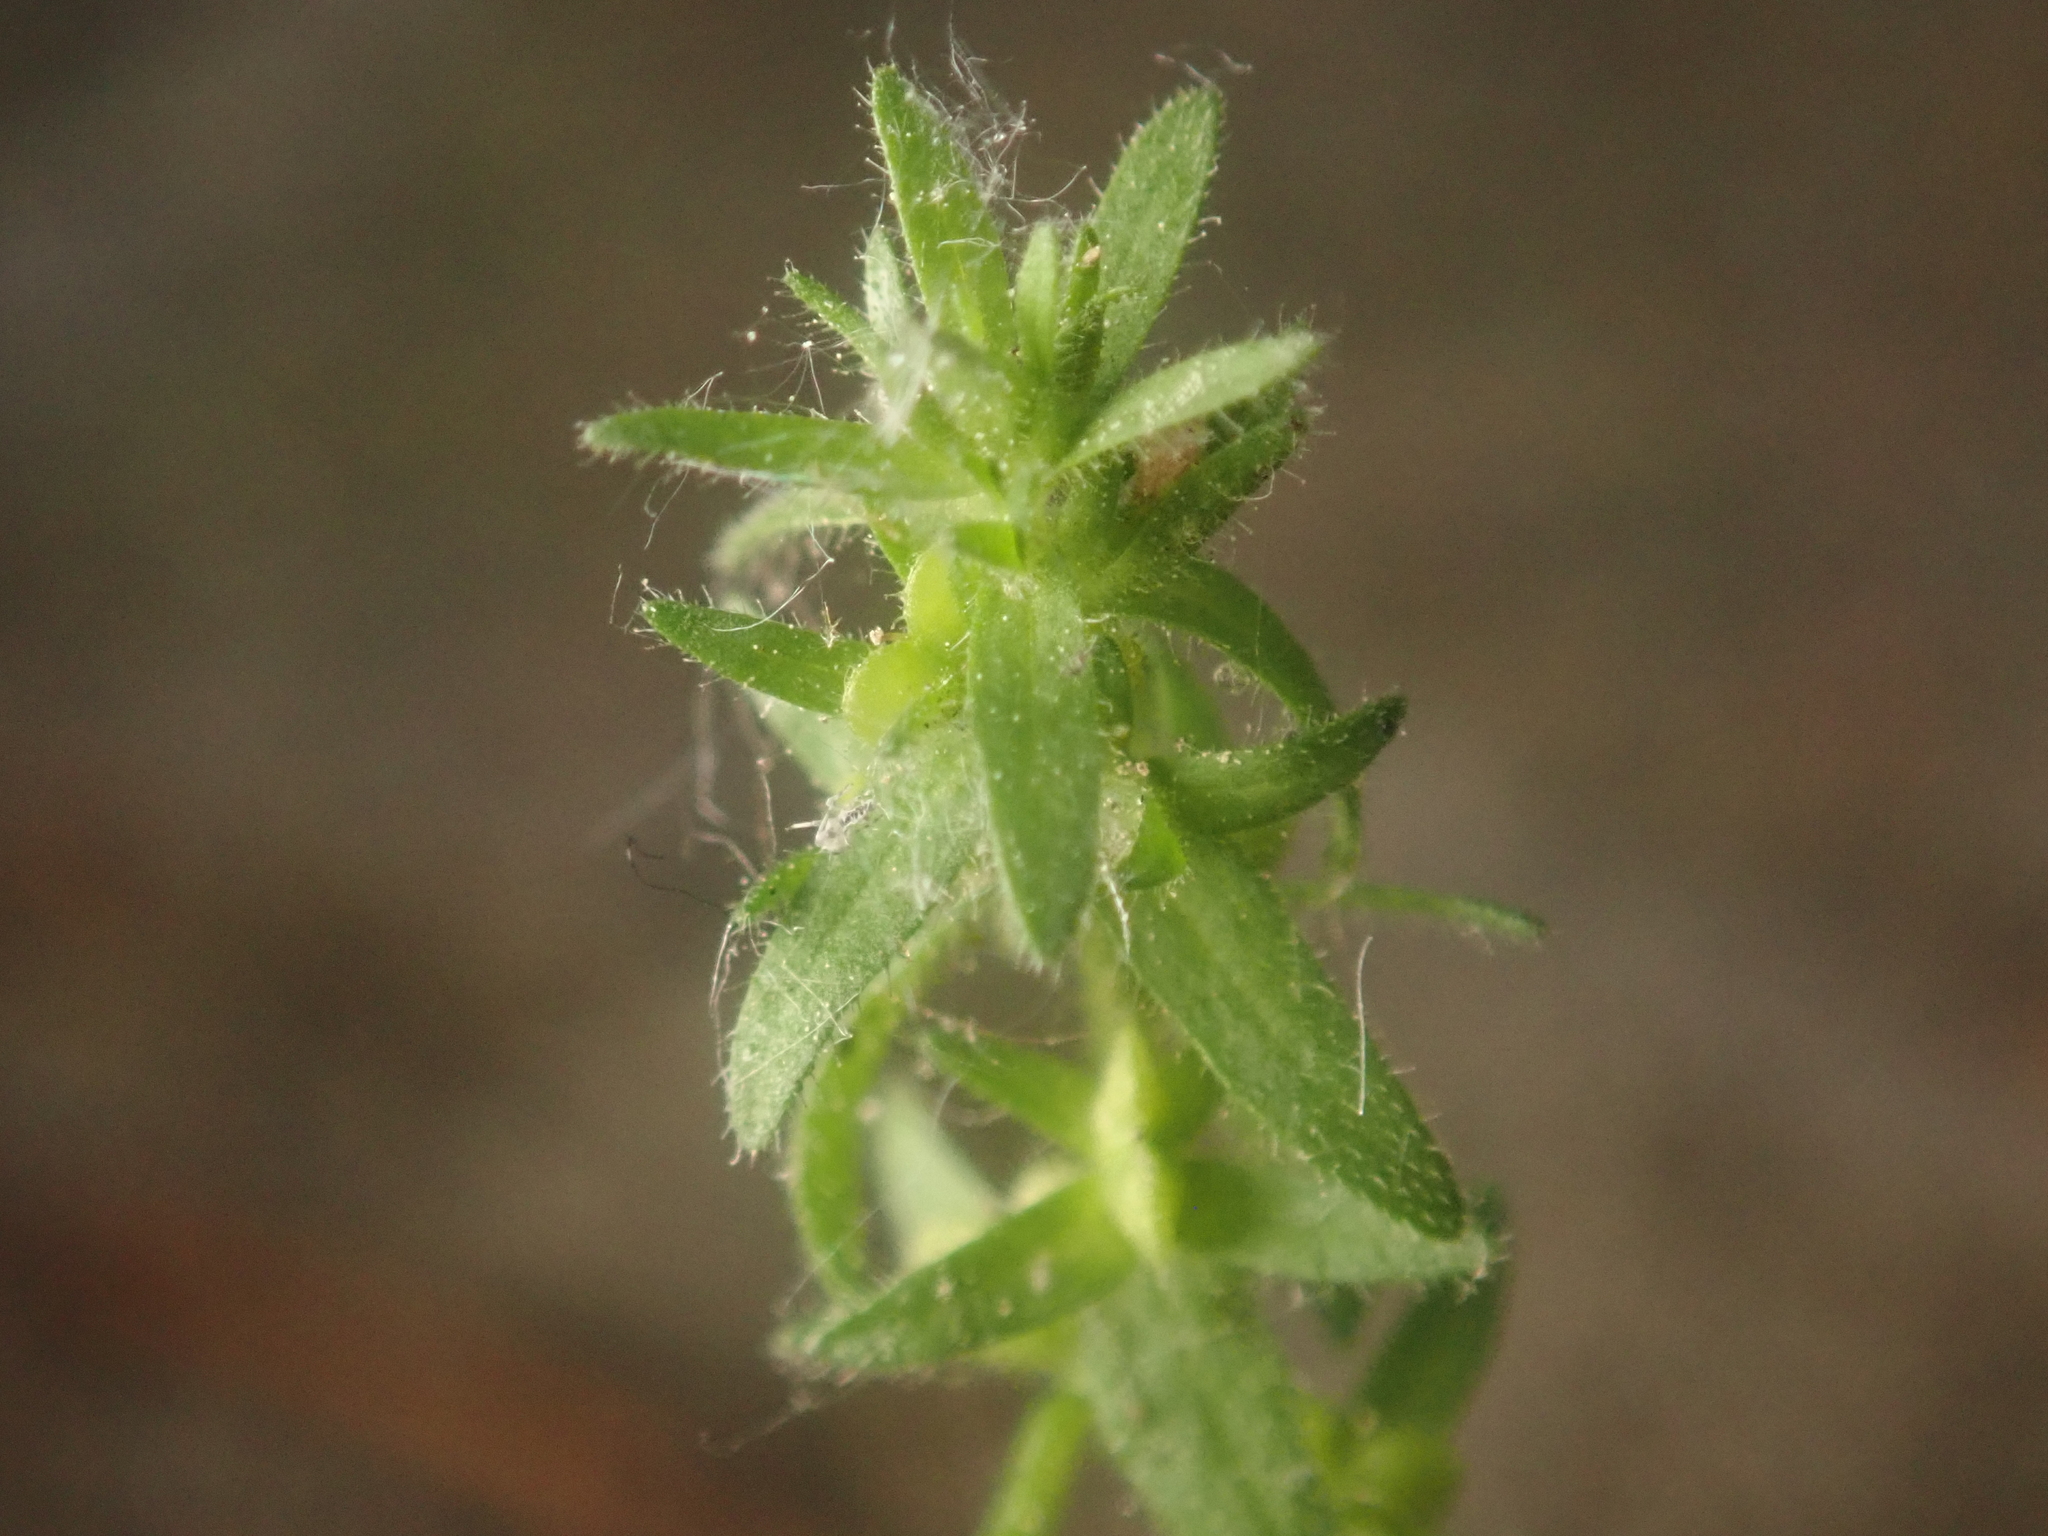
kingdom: Plantae
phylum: Tracheophyta
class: Magnoliopsida
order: Lamiales
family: Plantaginaceae
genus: Veronica
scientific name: Veronica arvensis
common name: Corn speedwell
